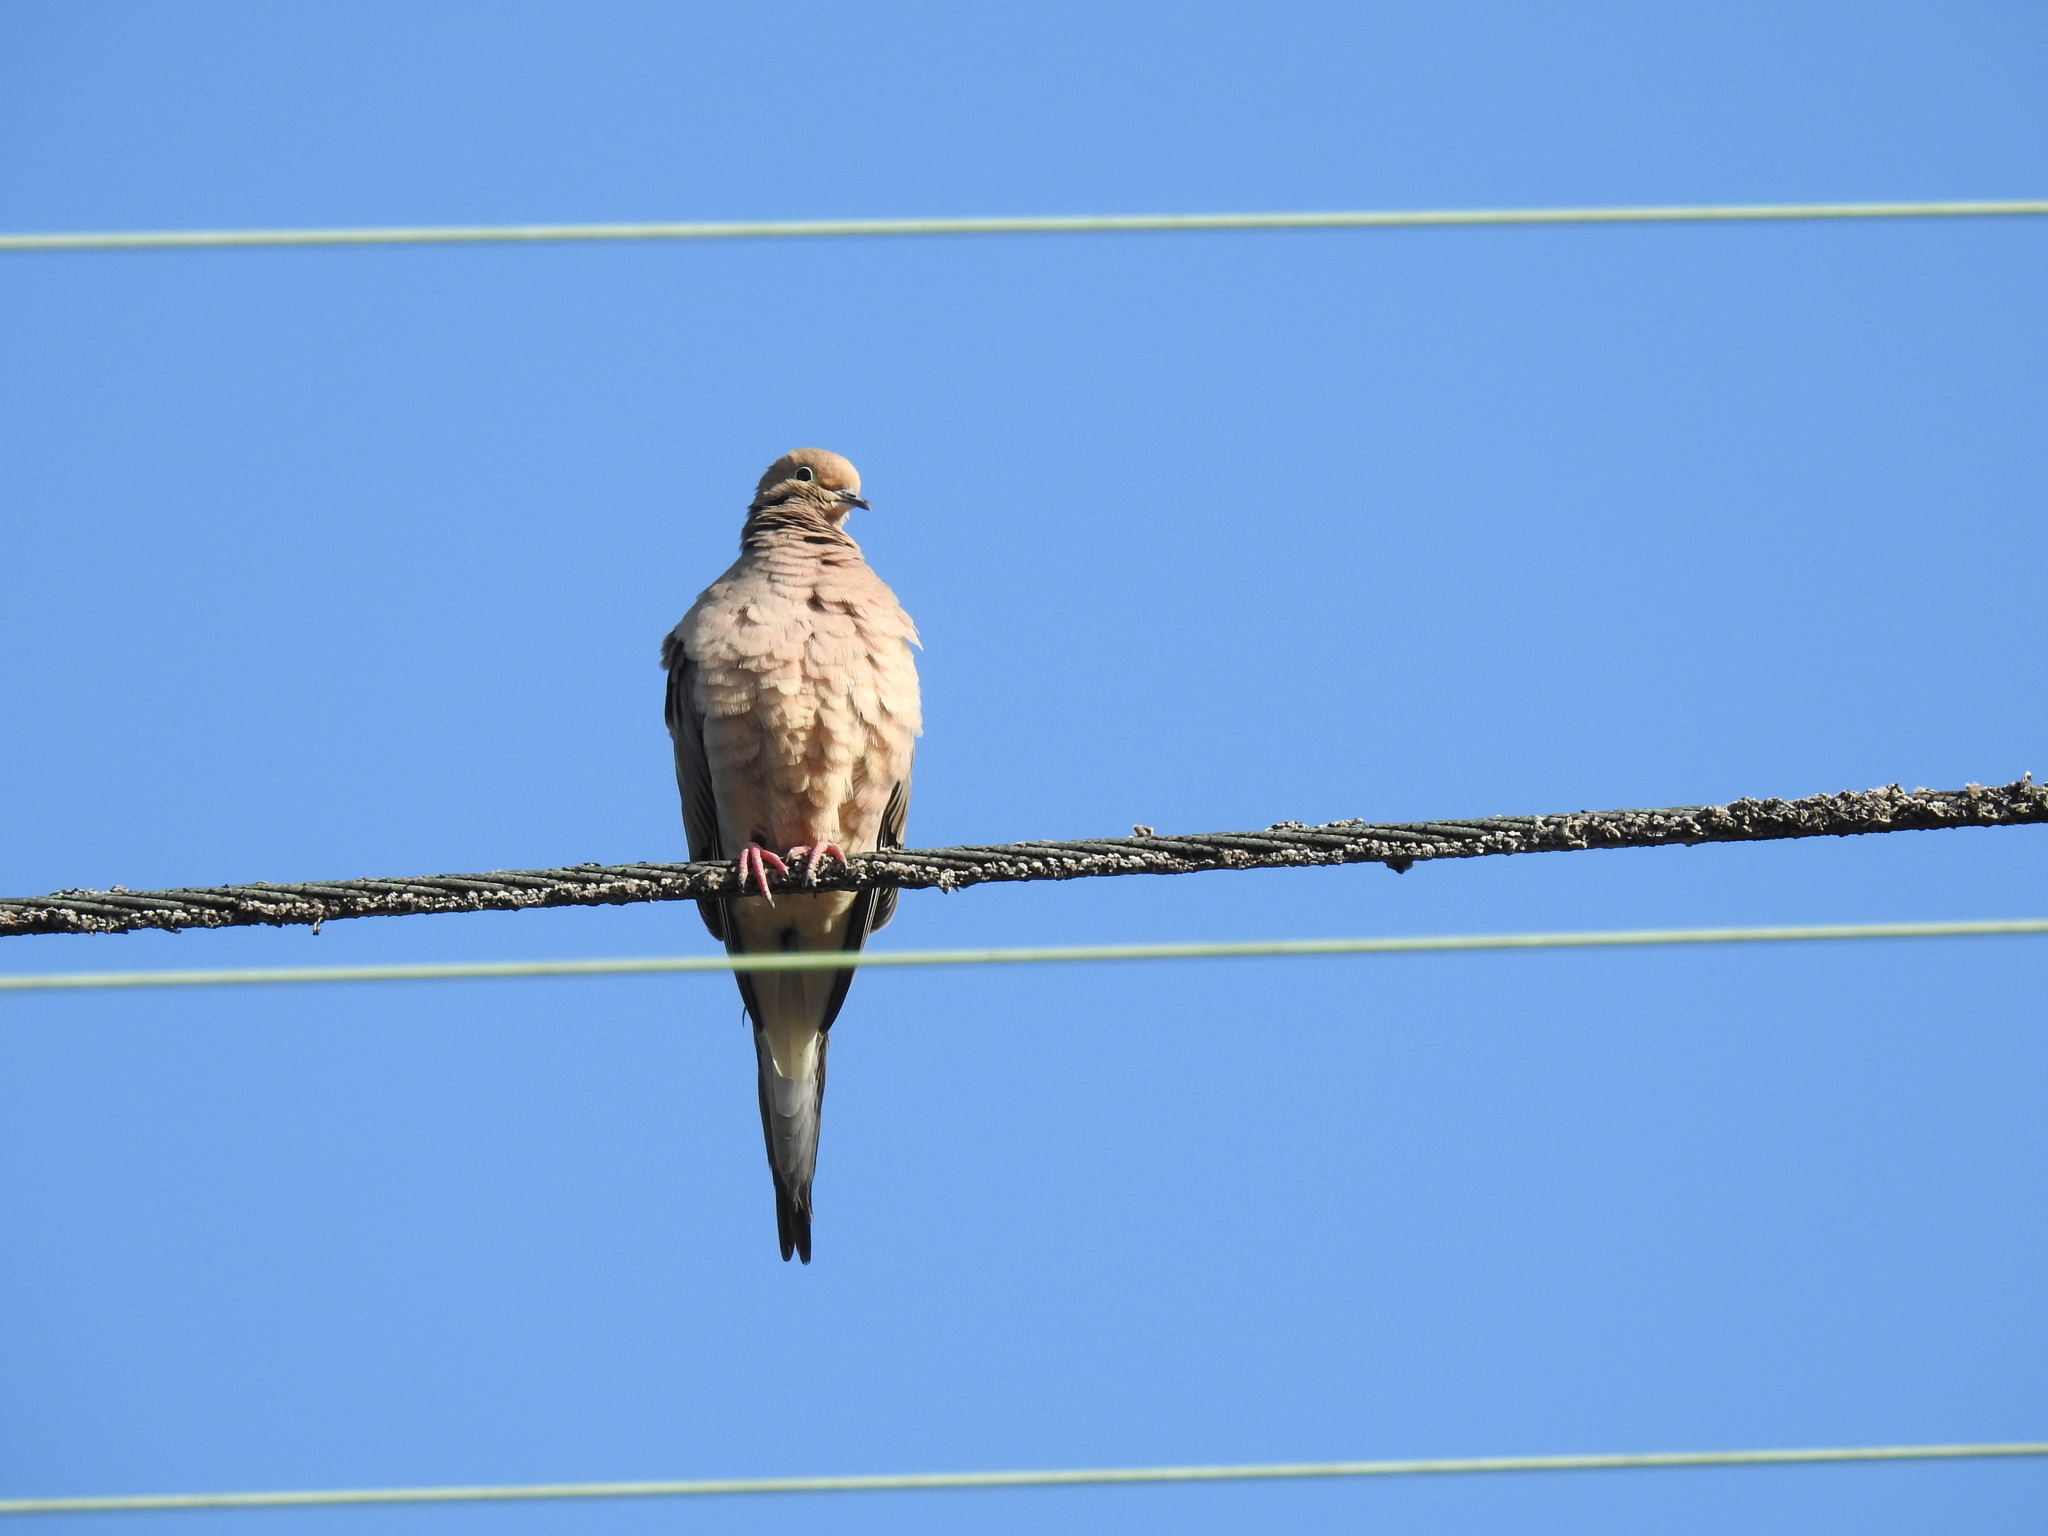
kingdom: Animalia
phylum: Chordata
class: Aves
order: Columbiformes
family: Columbidae
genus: Zenaida
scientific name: Zenaida macroura
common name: Mourning dove
